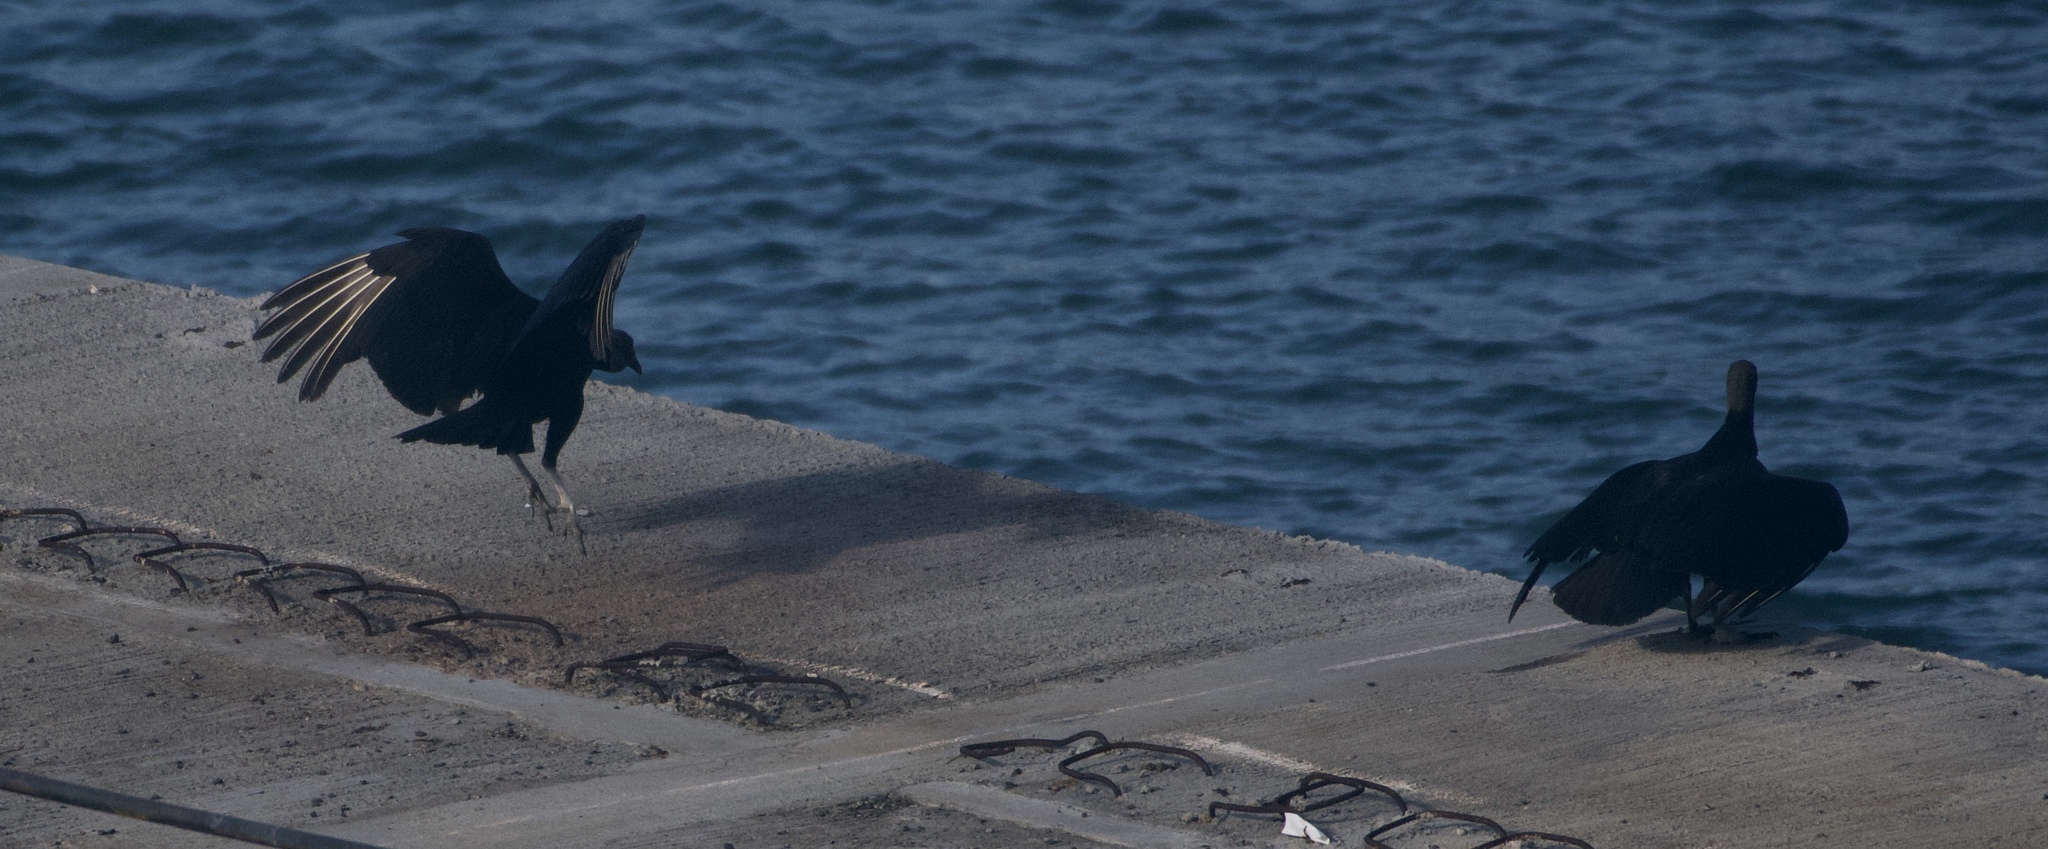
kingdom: Animalia
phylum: Chordata
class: Aves
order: Accipitriformes
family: Cathartidae
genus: Coragyps
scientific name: Coragyps atratus
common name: Black vulture
